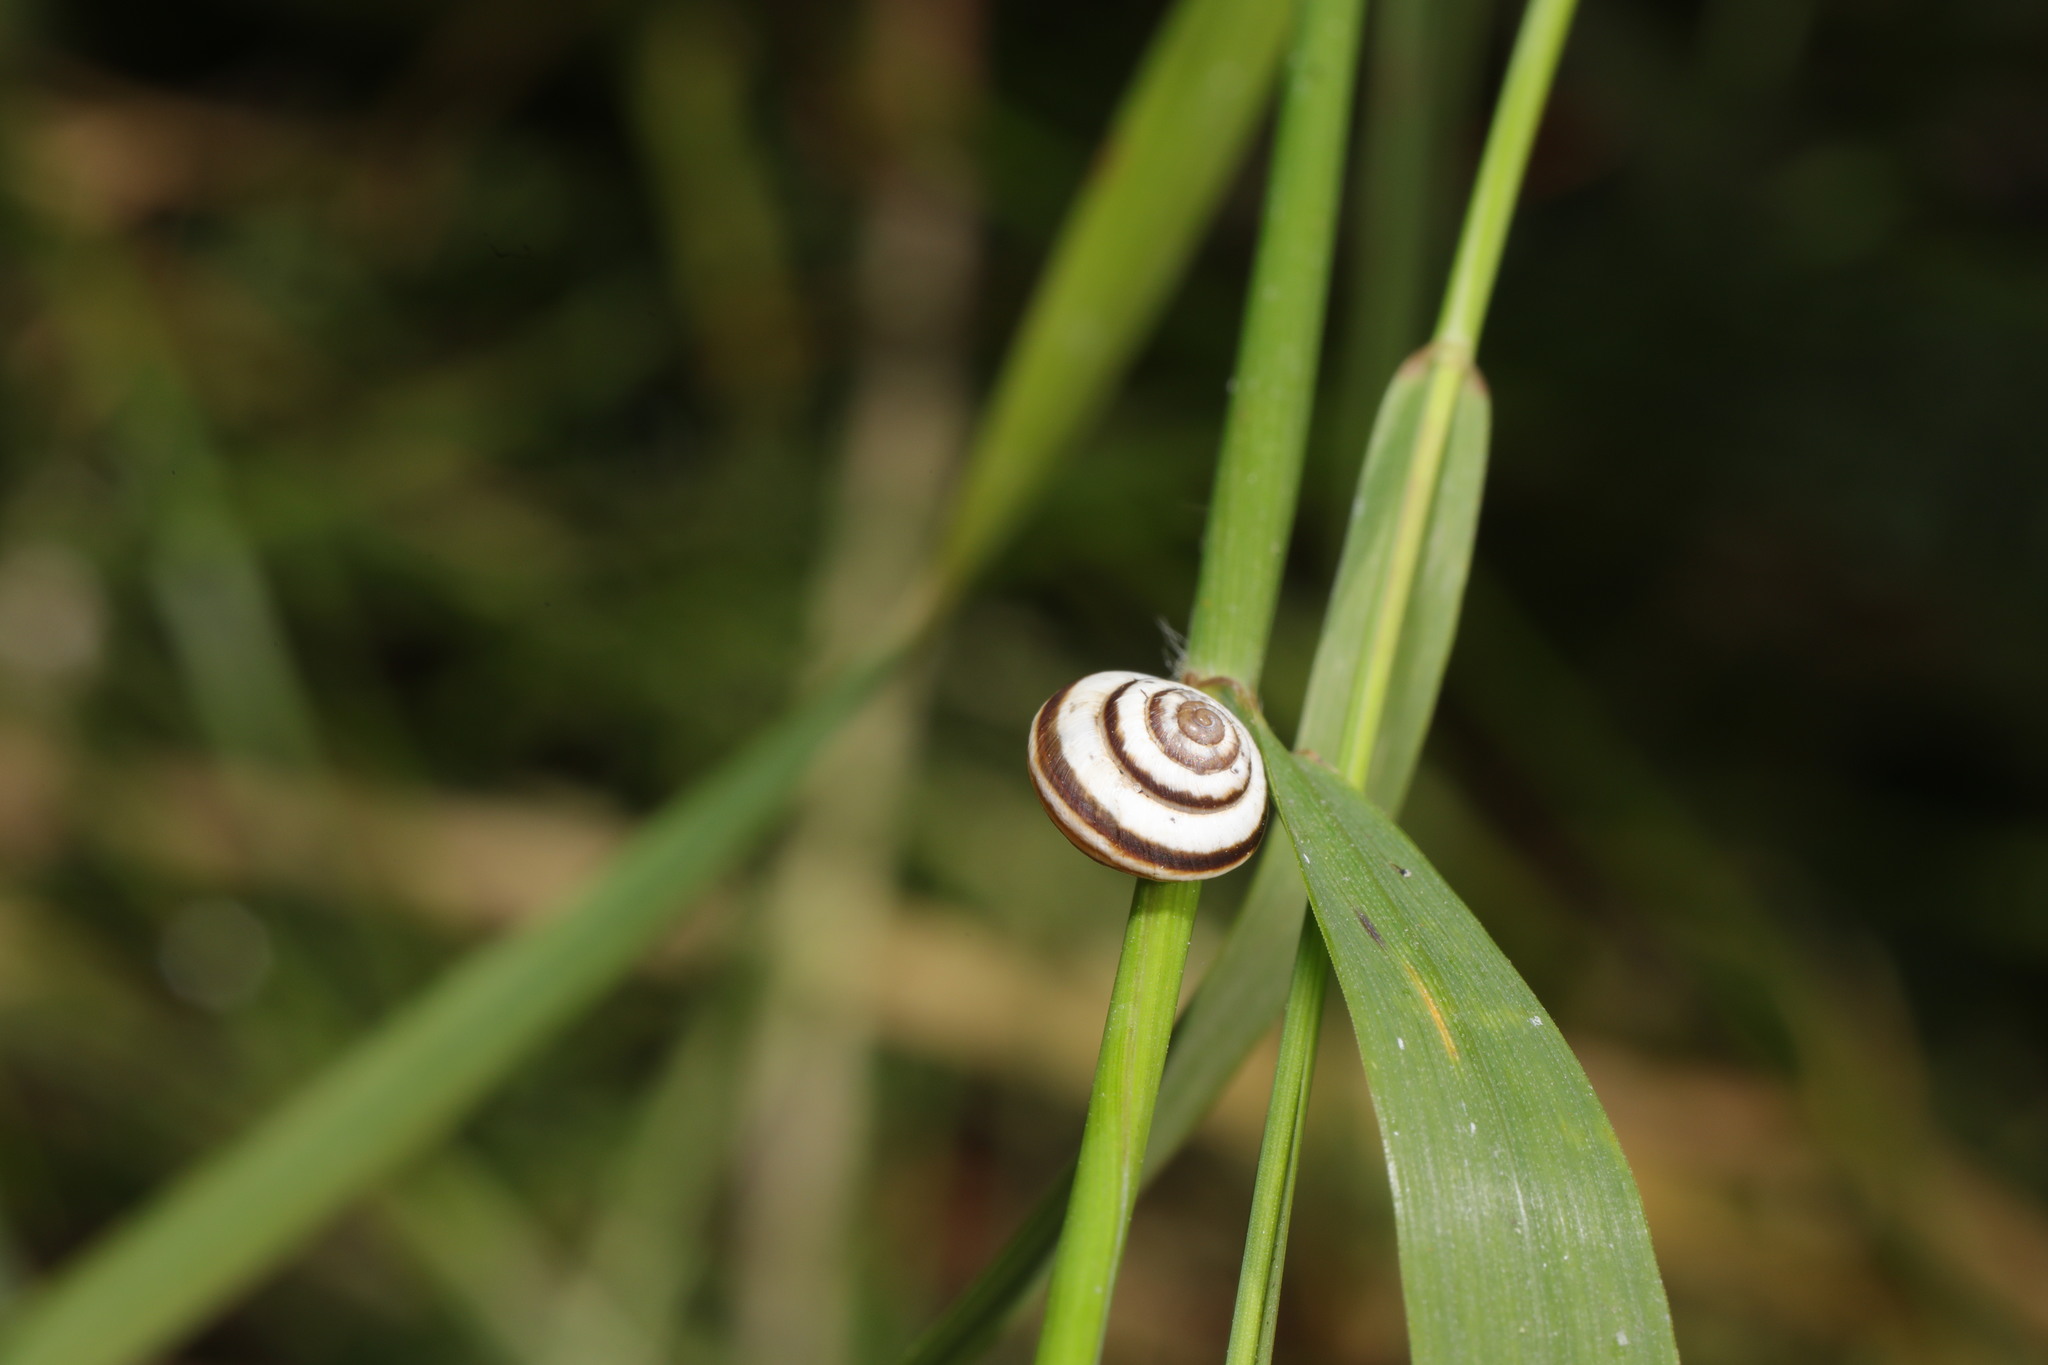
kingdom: Animalia
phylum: Mollusca
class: Gastropoda
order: Stylommatophora
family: Geomitridae
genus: Cernuella
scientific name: Cernuella virgata
